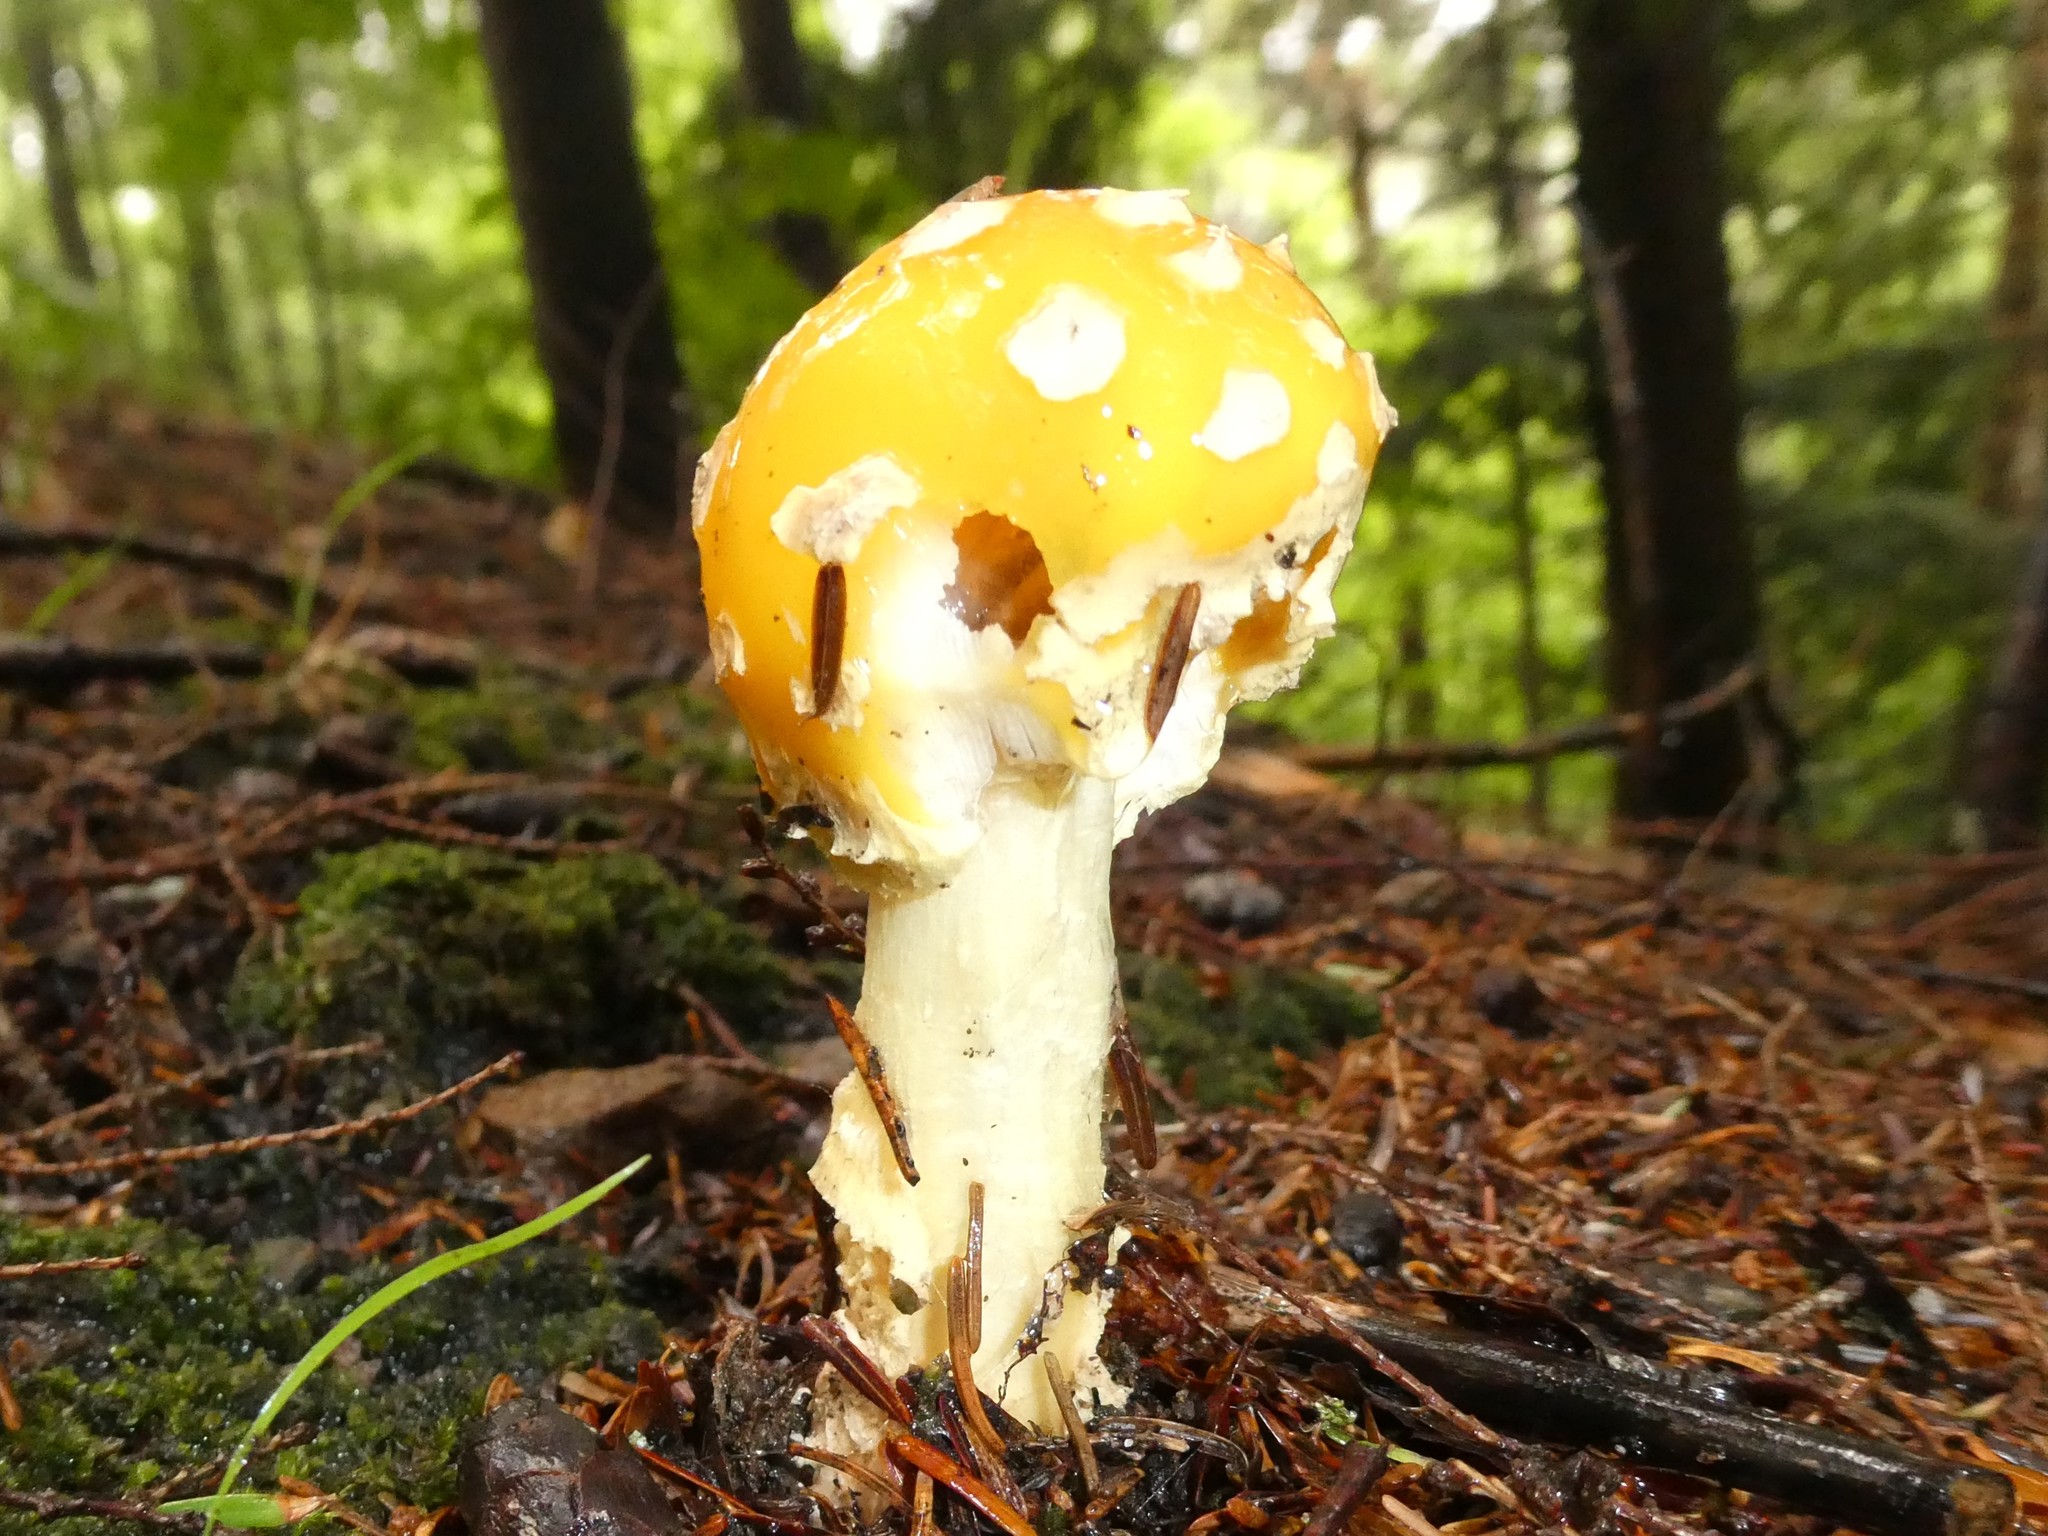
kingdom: Fungi
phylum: Basidiomycota
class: Agaricomycetes
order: Agaricales
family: Amanitaceae
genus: Amanita
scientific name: Amanita muscaria
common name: Fly agaric
